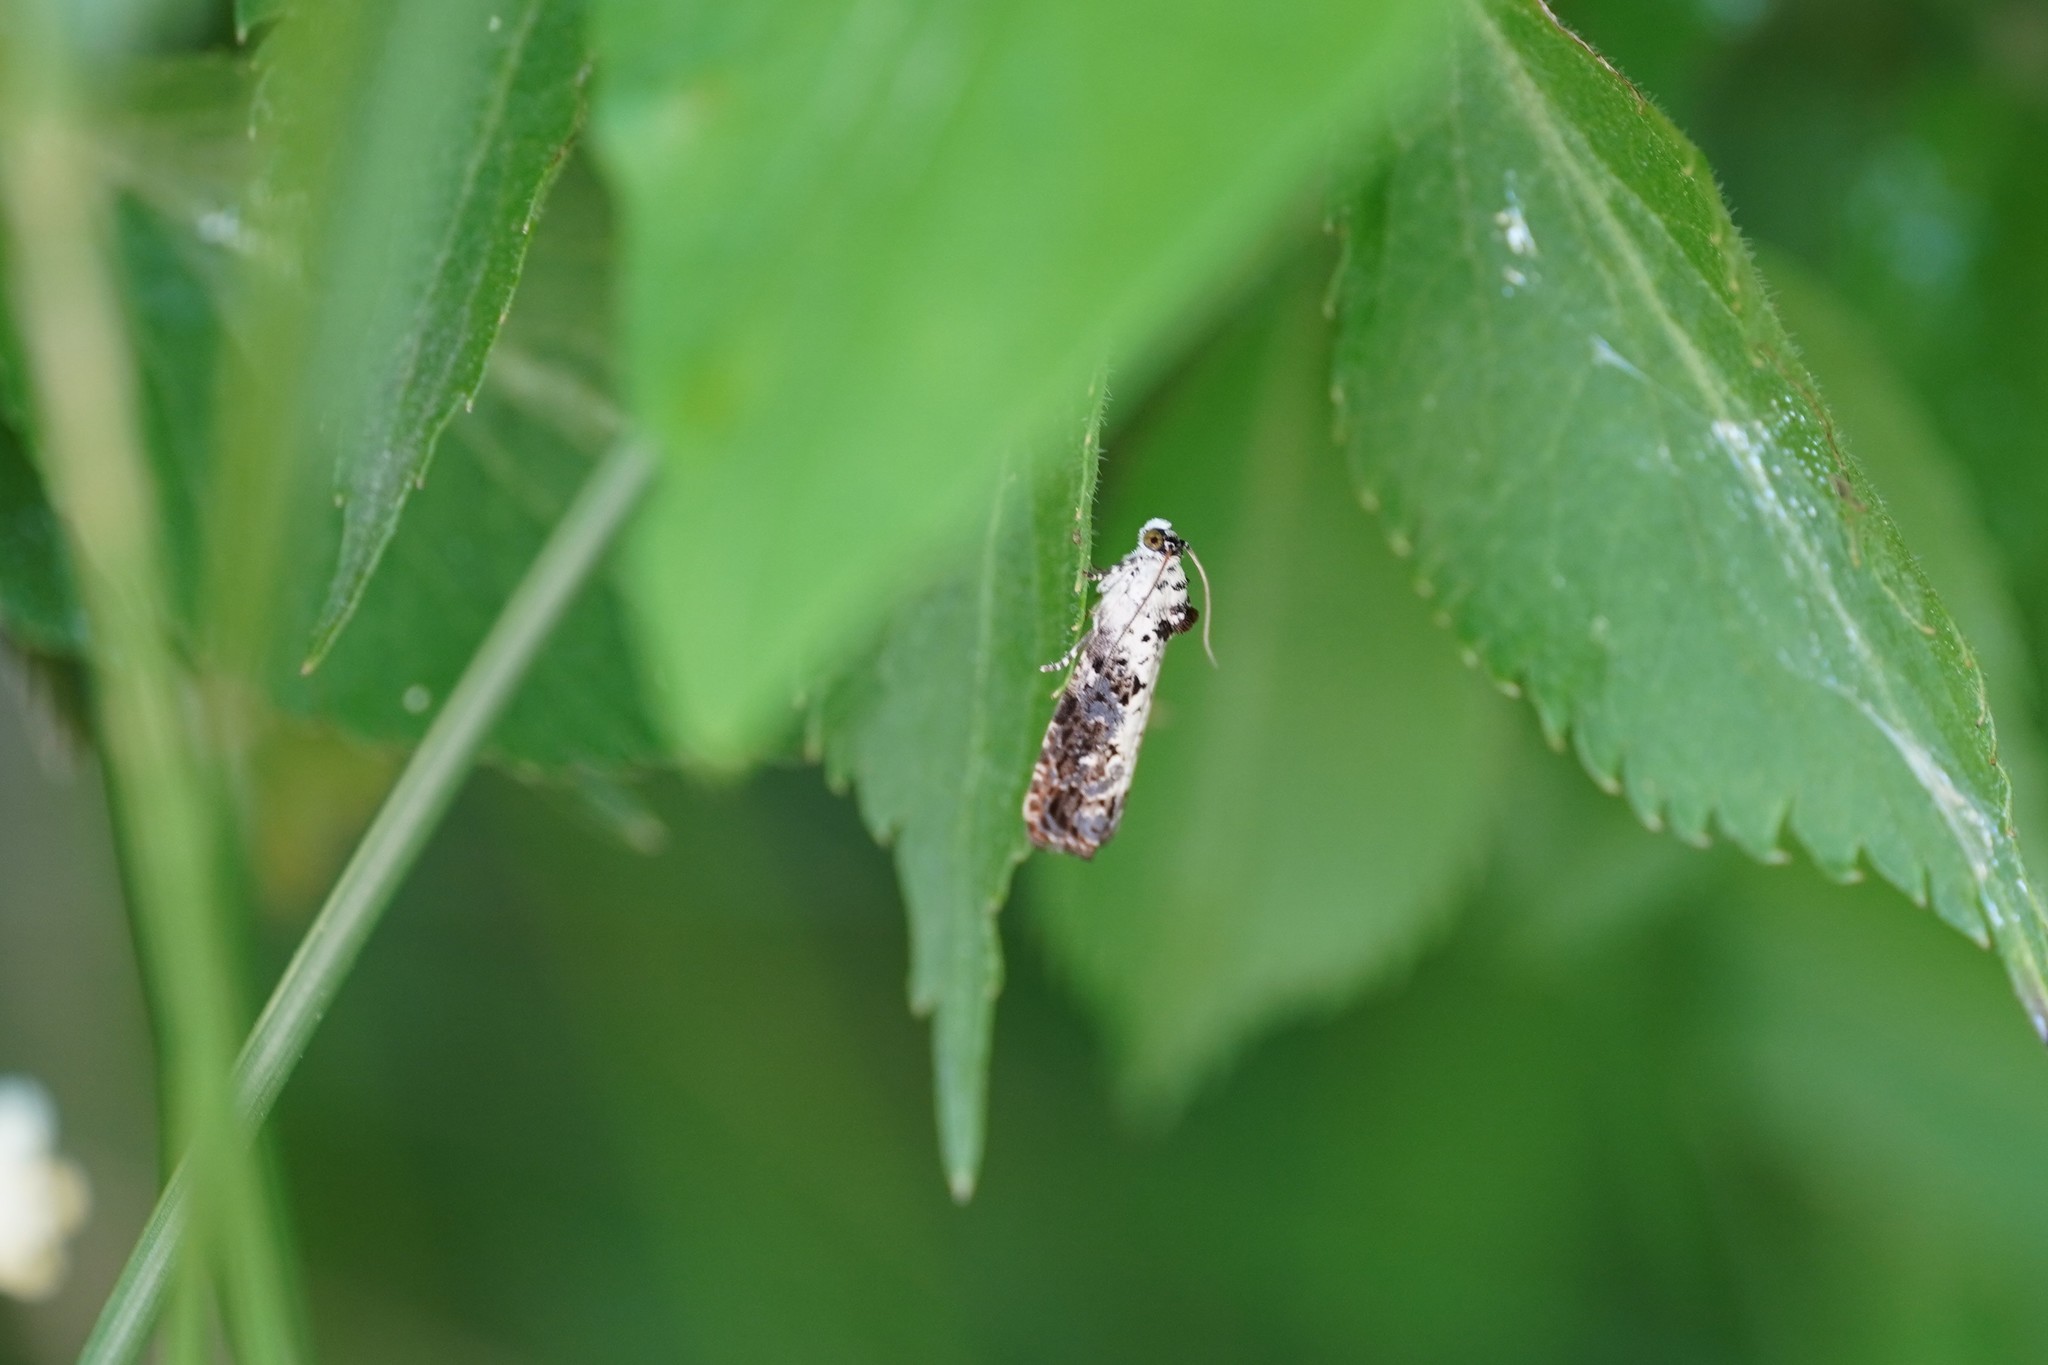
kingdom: Animalia
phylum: Arthropoda
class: Insecta
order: Lepidoptera
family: Tortricidae
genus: Hedya
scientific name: Hedya salicella
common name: Large tortricid moth
